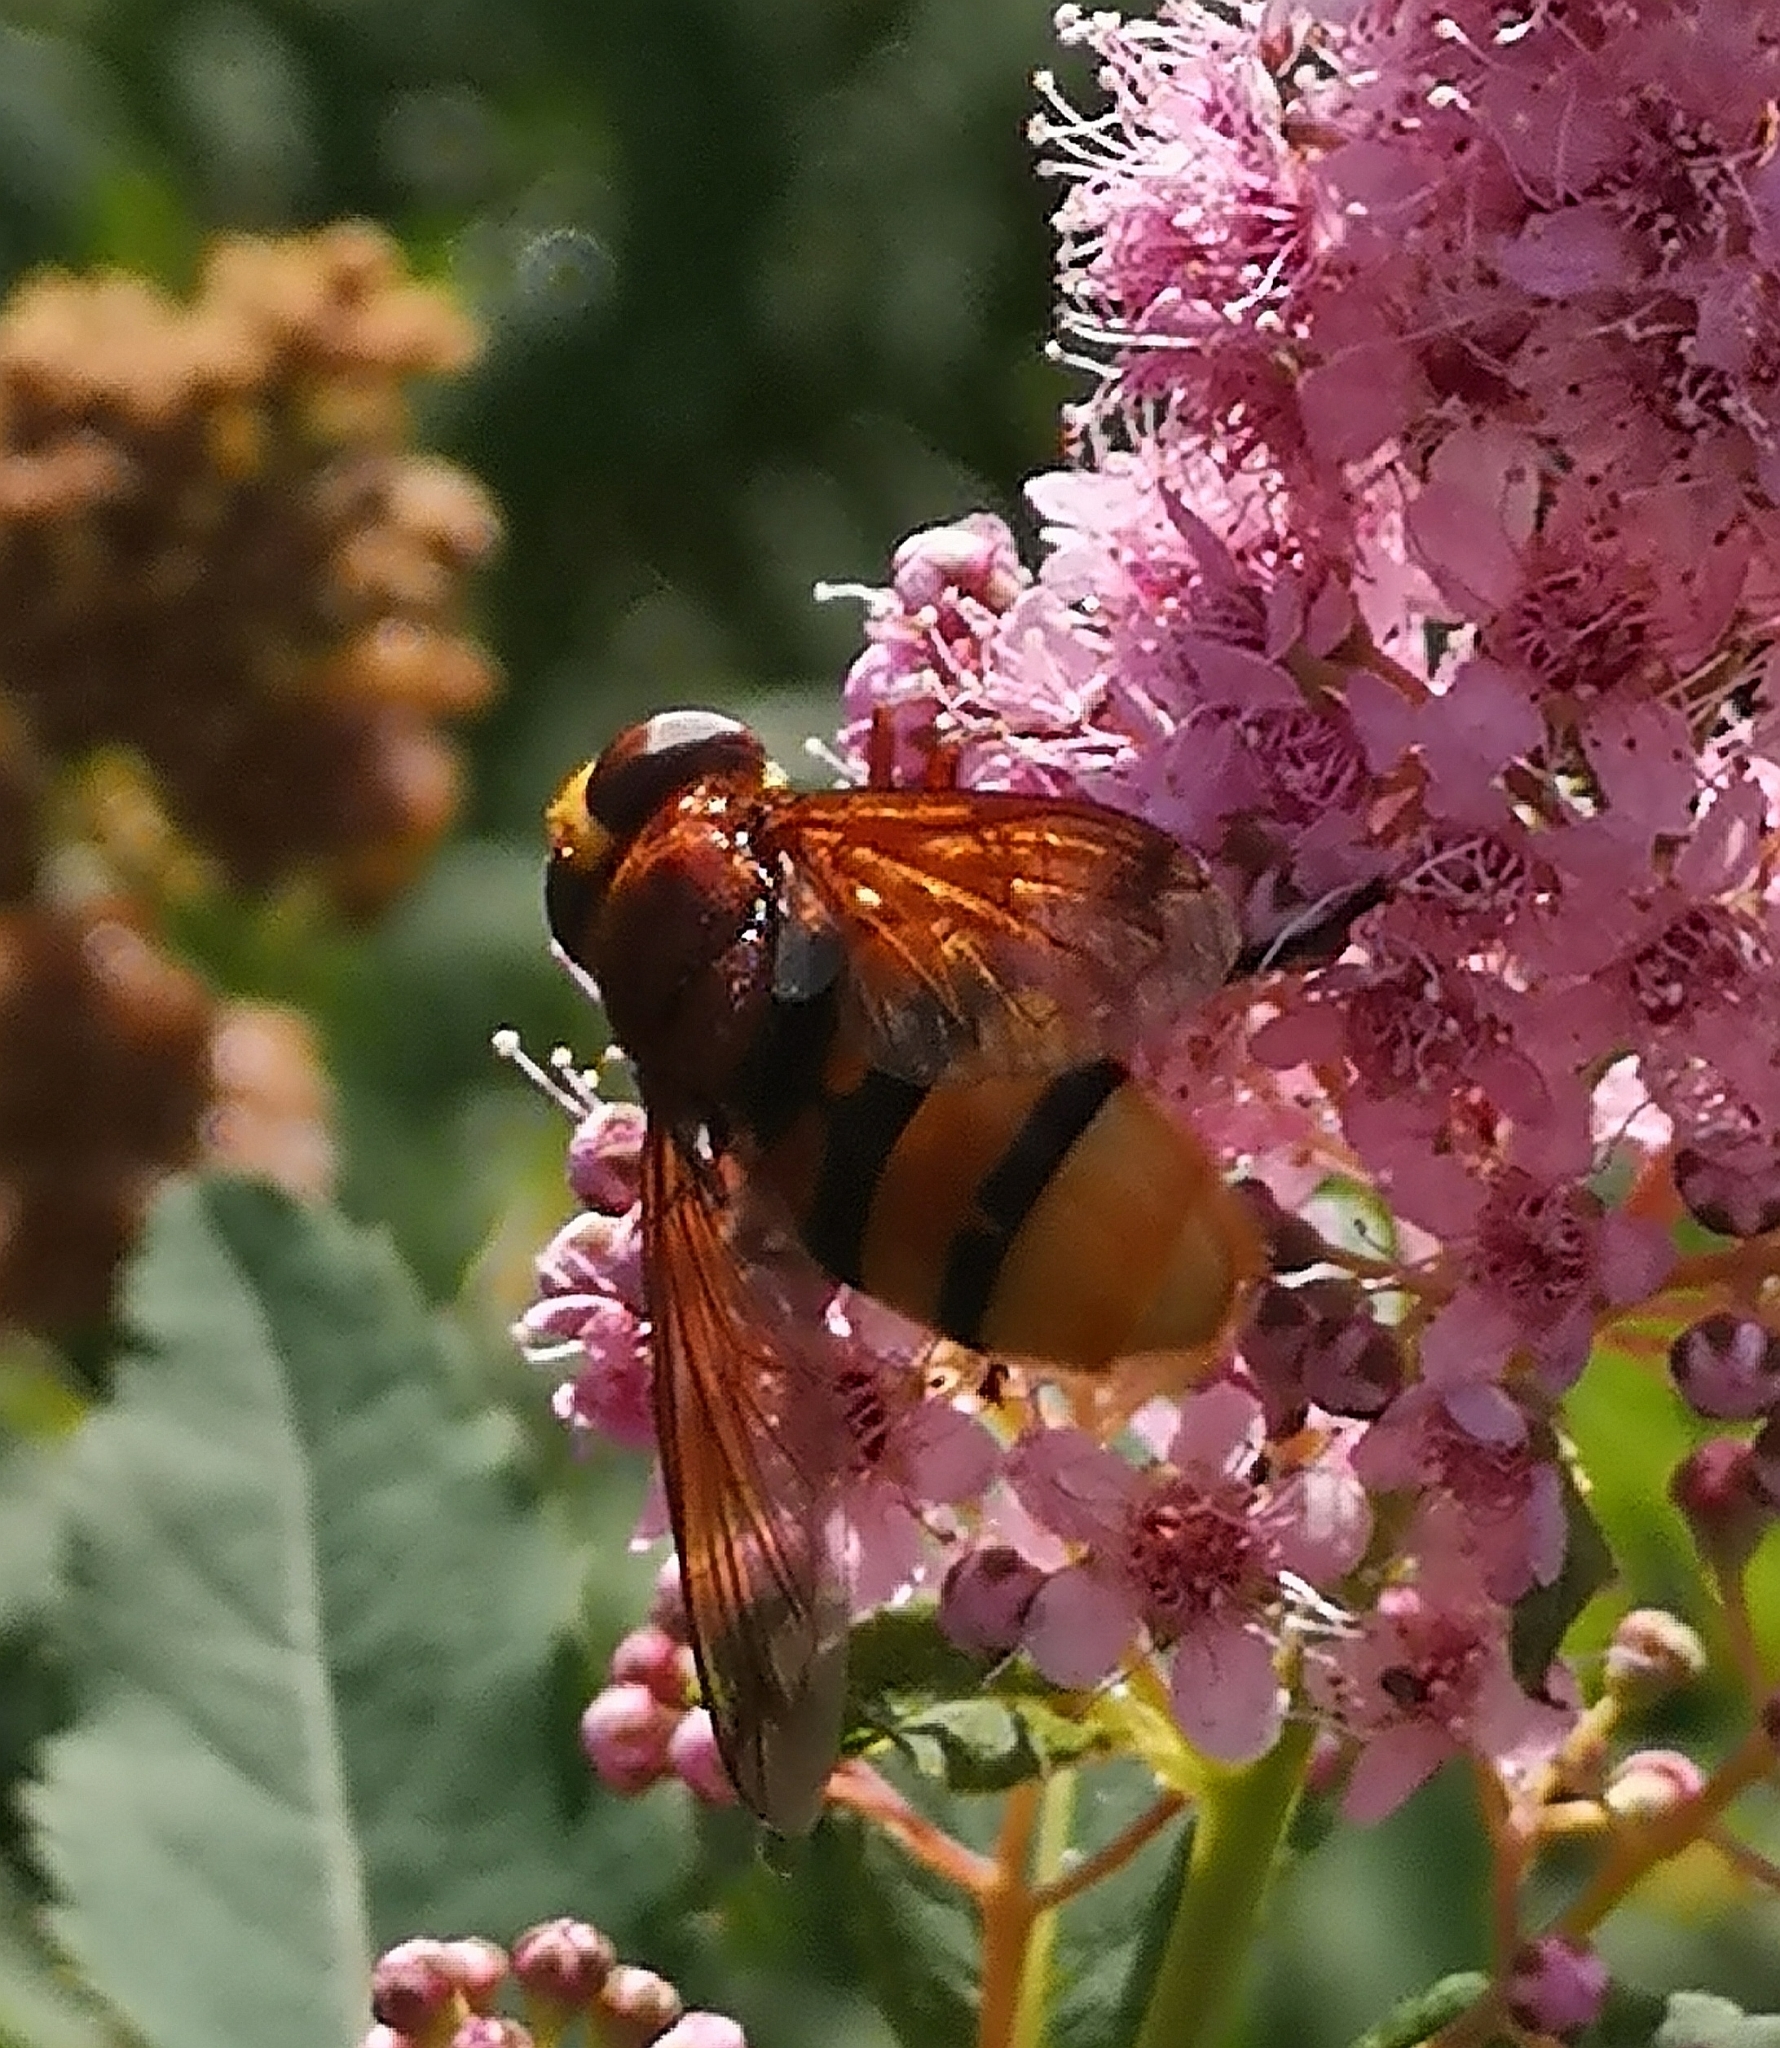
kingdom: Animalia
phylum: Arthropoda
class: Insecta
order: Diptera
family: Syrphidae
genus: Volucella
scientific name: Volucella zonaria
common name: Hornet hoverfly
